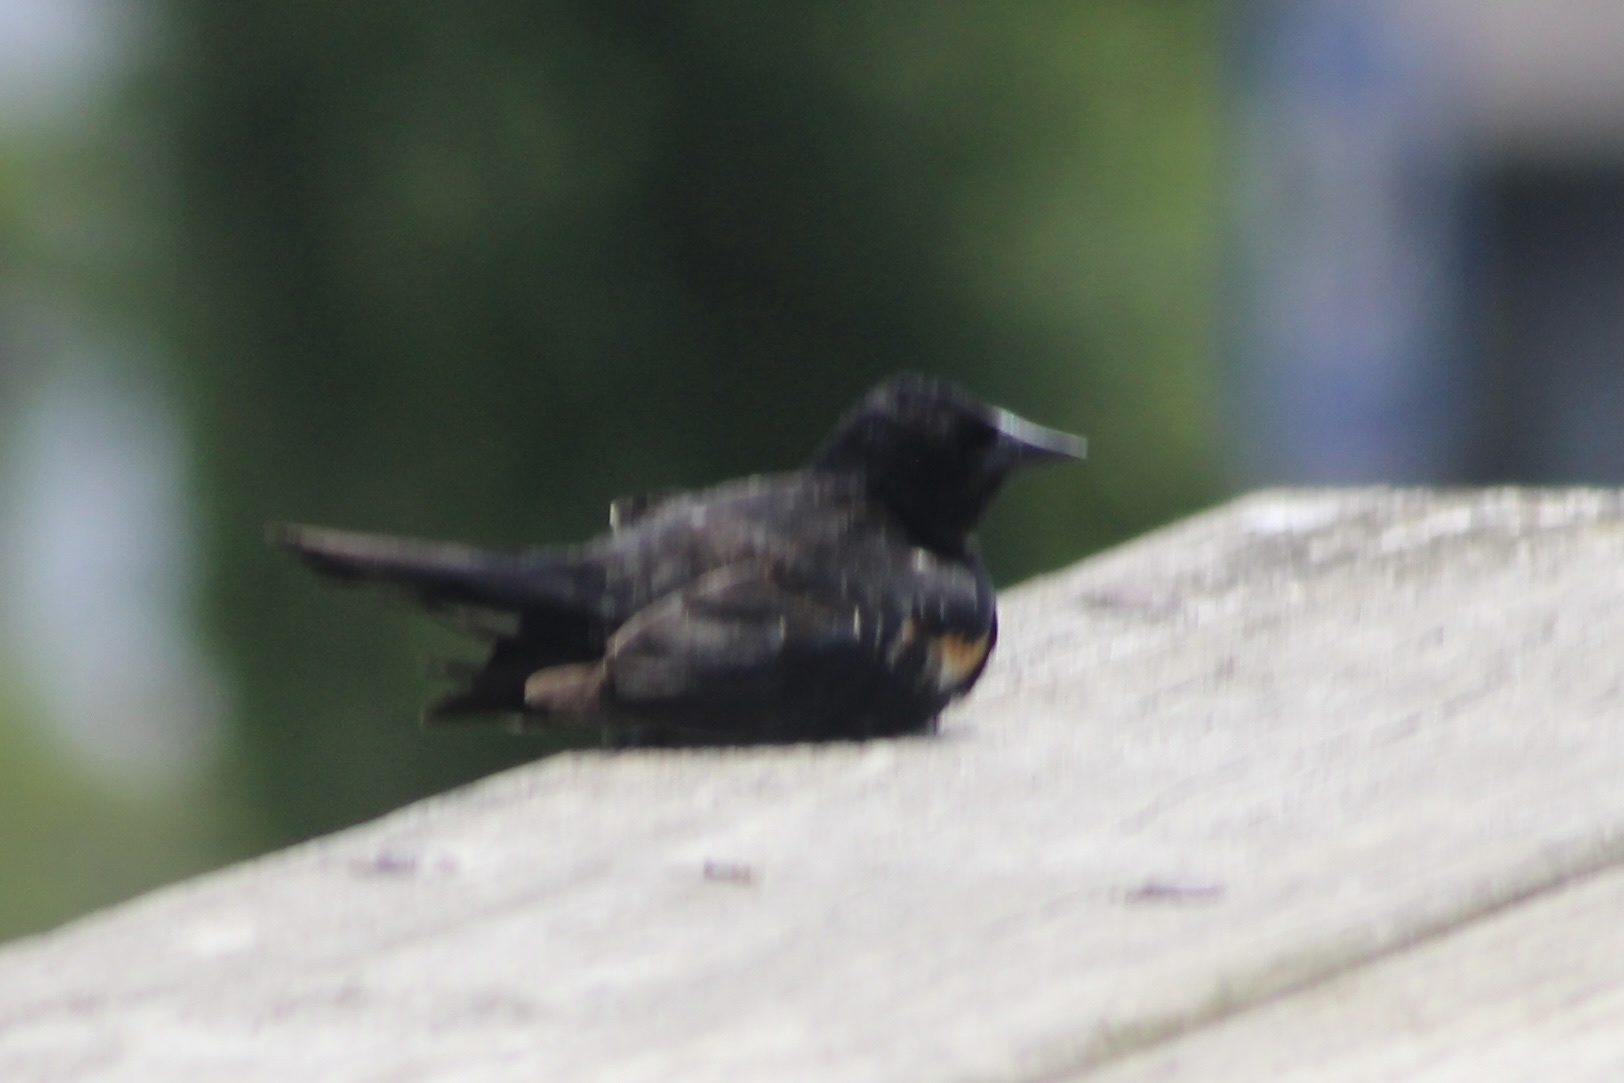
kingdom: Animalia
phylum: Chordata
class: Aves
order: Passeriformes
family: Icteridae
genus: Agelaius
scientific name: Agelaius phoeniceus
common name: Red-winged blackbird
